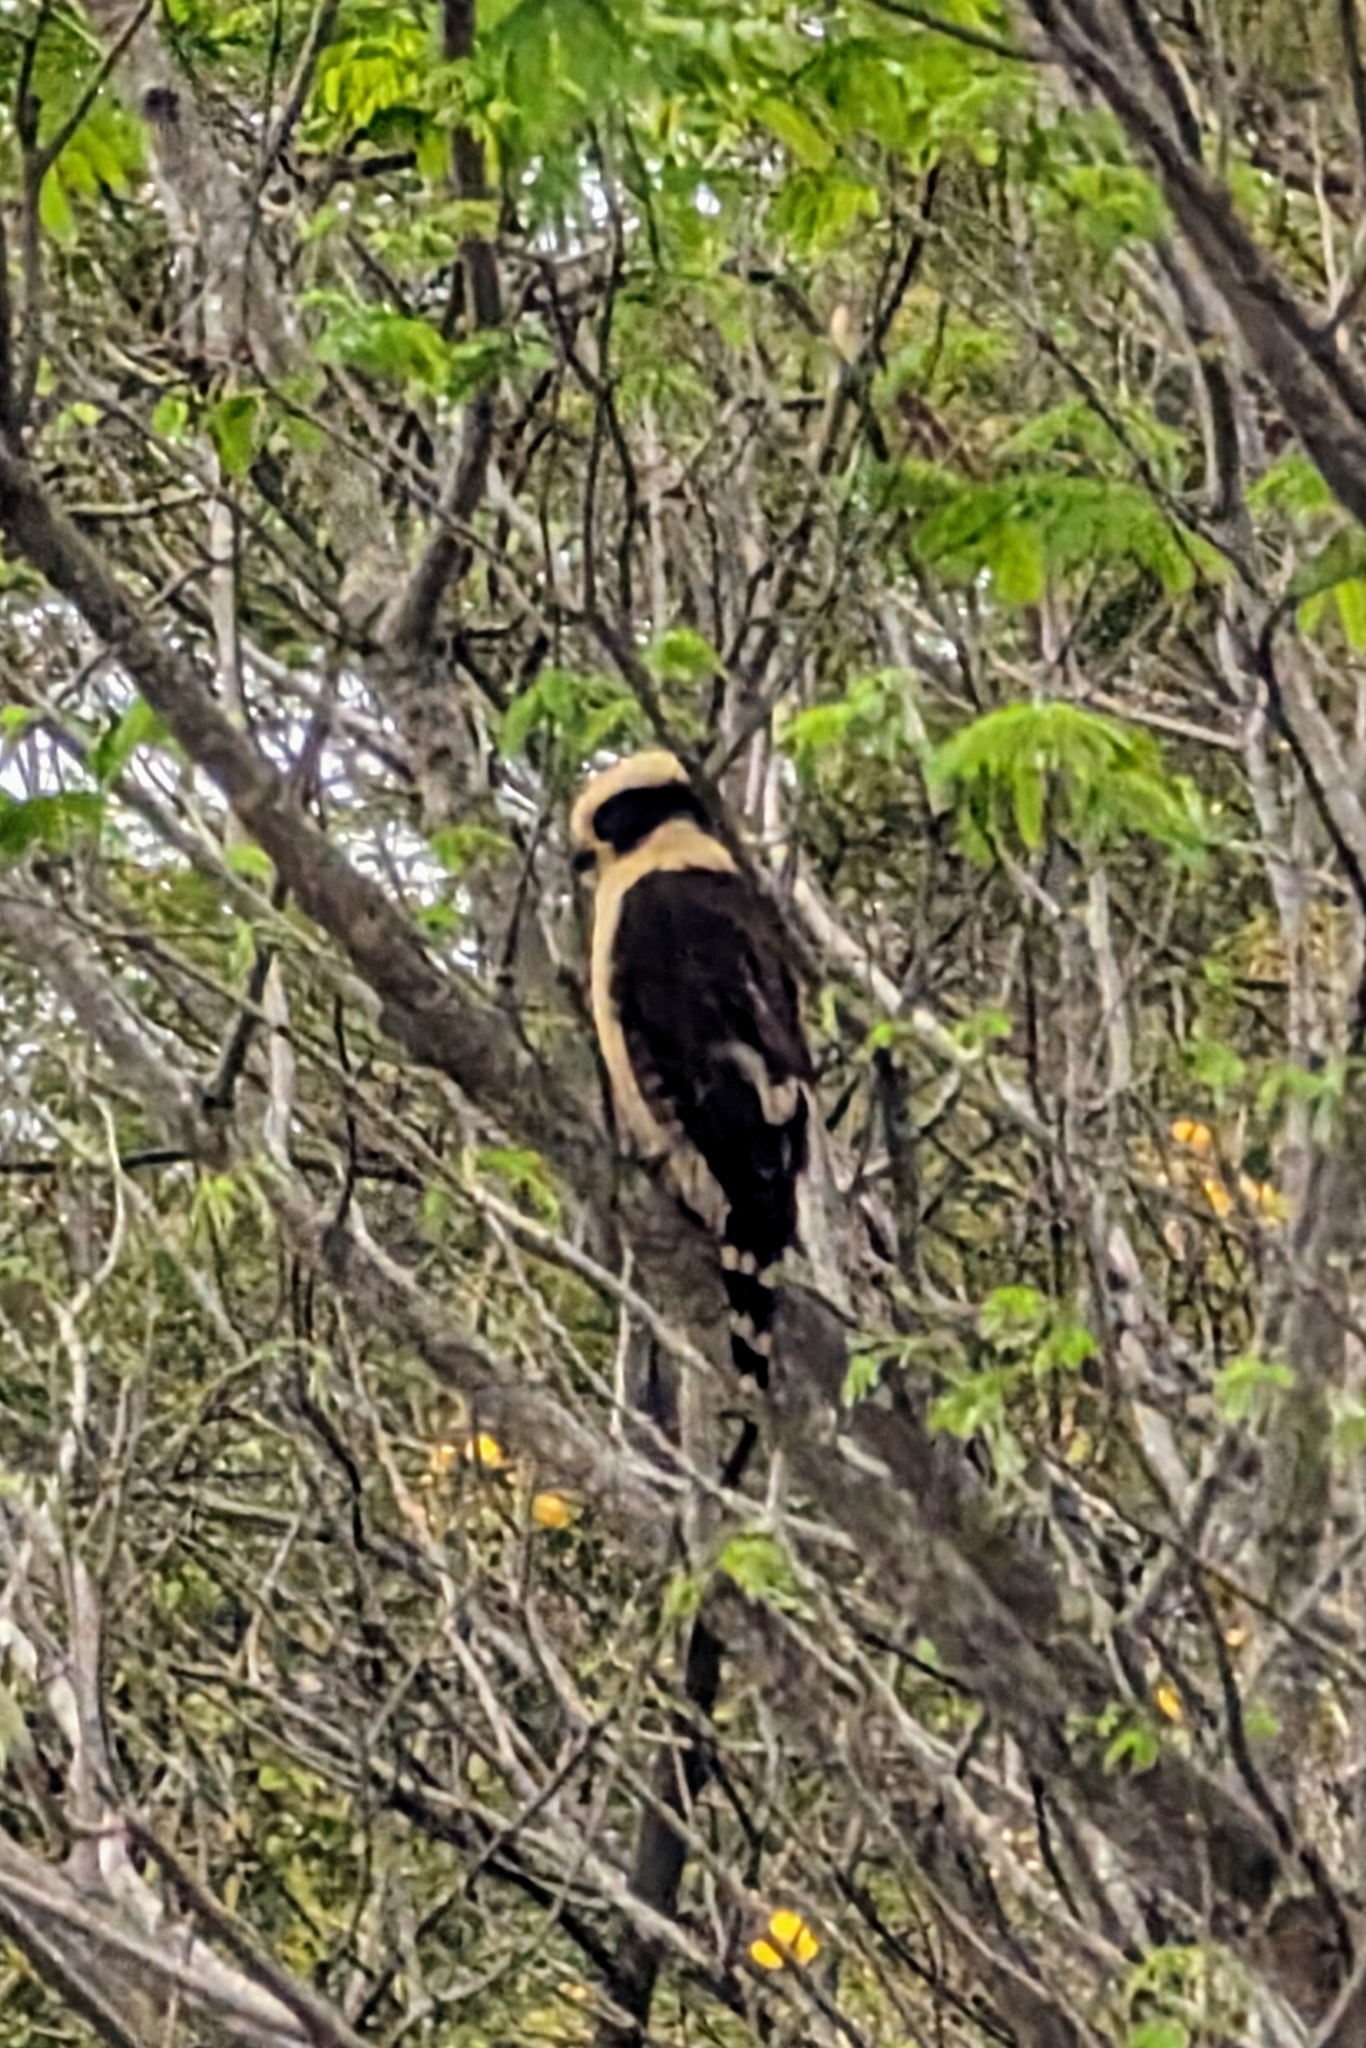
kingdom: Animalia
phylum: Chordata
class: Aves
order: Falconiformes
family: Falconidae
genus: Herpetotheres
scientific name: Herpetotheres cachinnans
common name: Laughing falcon
